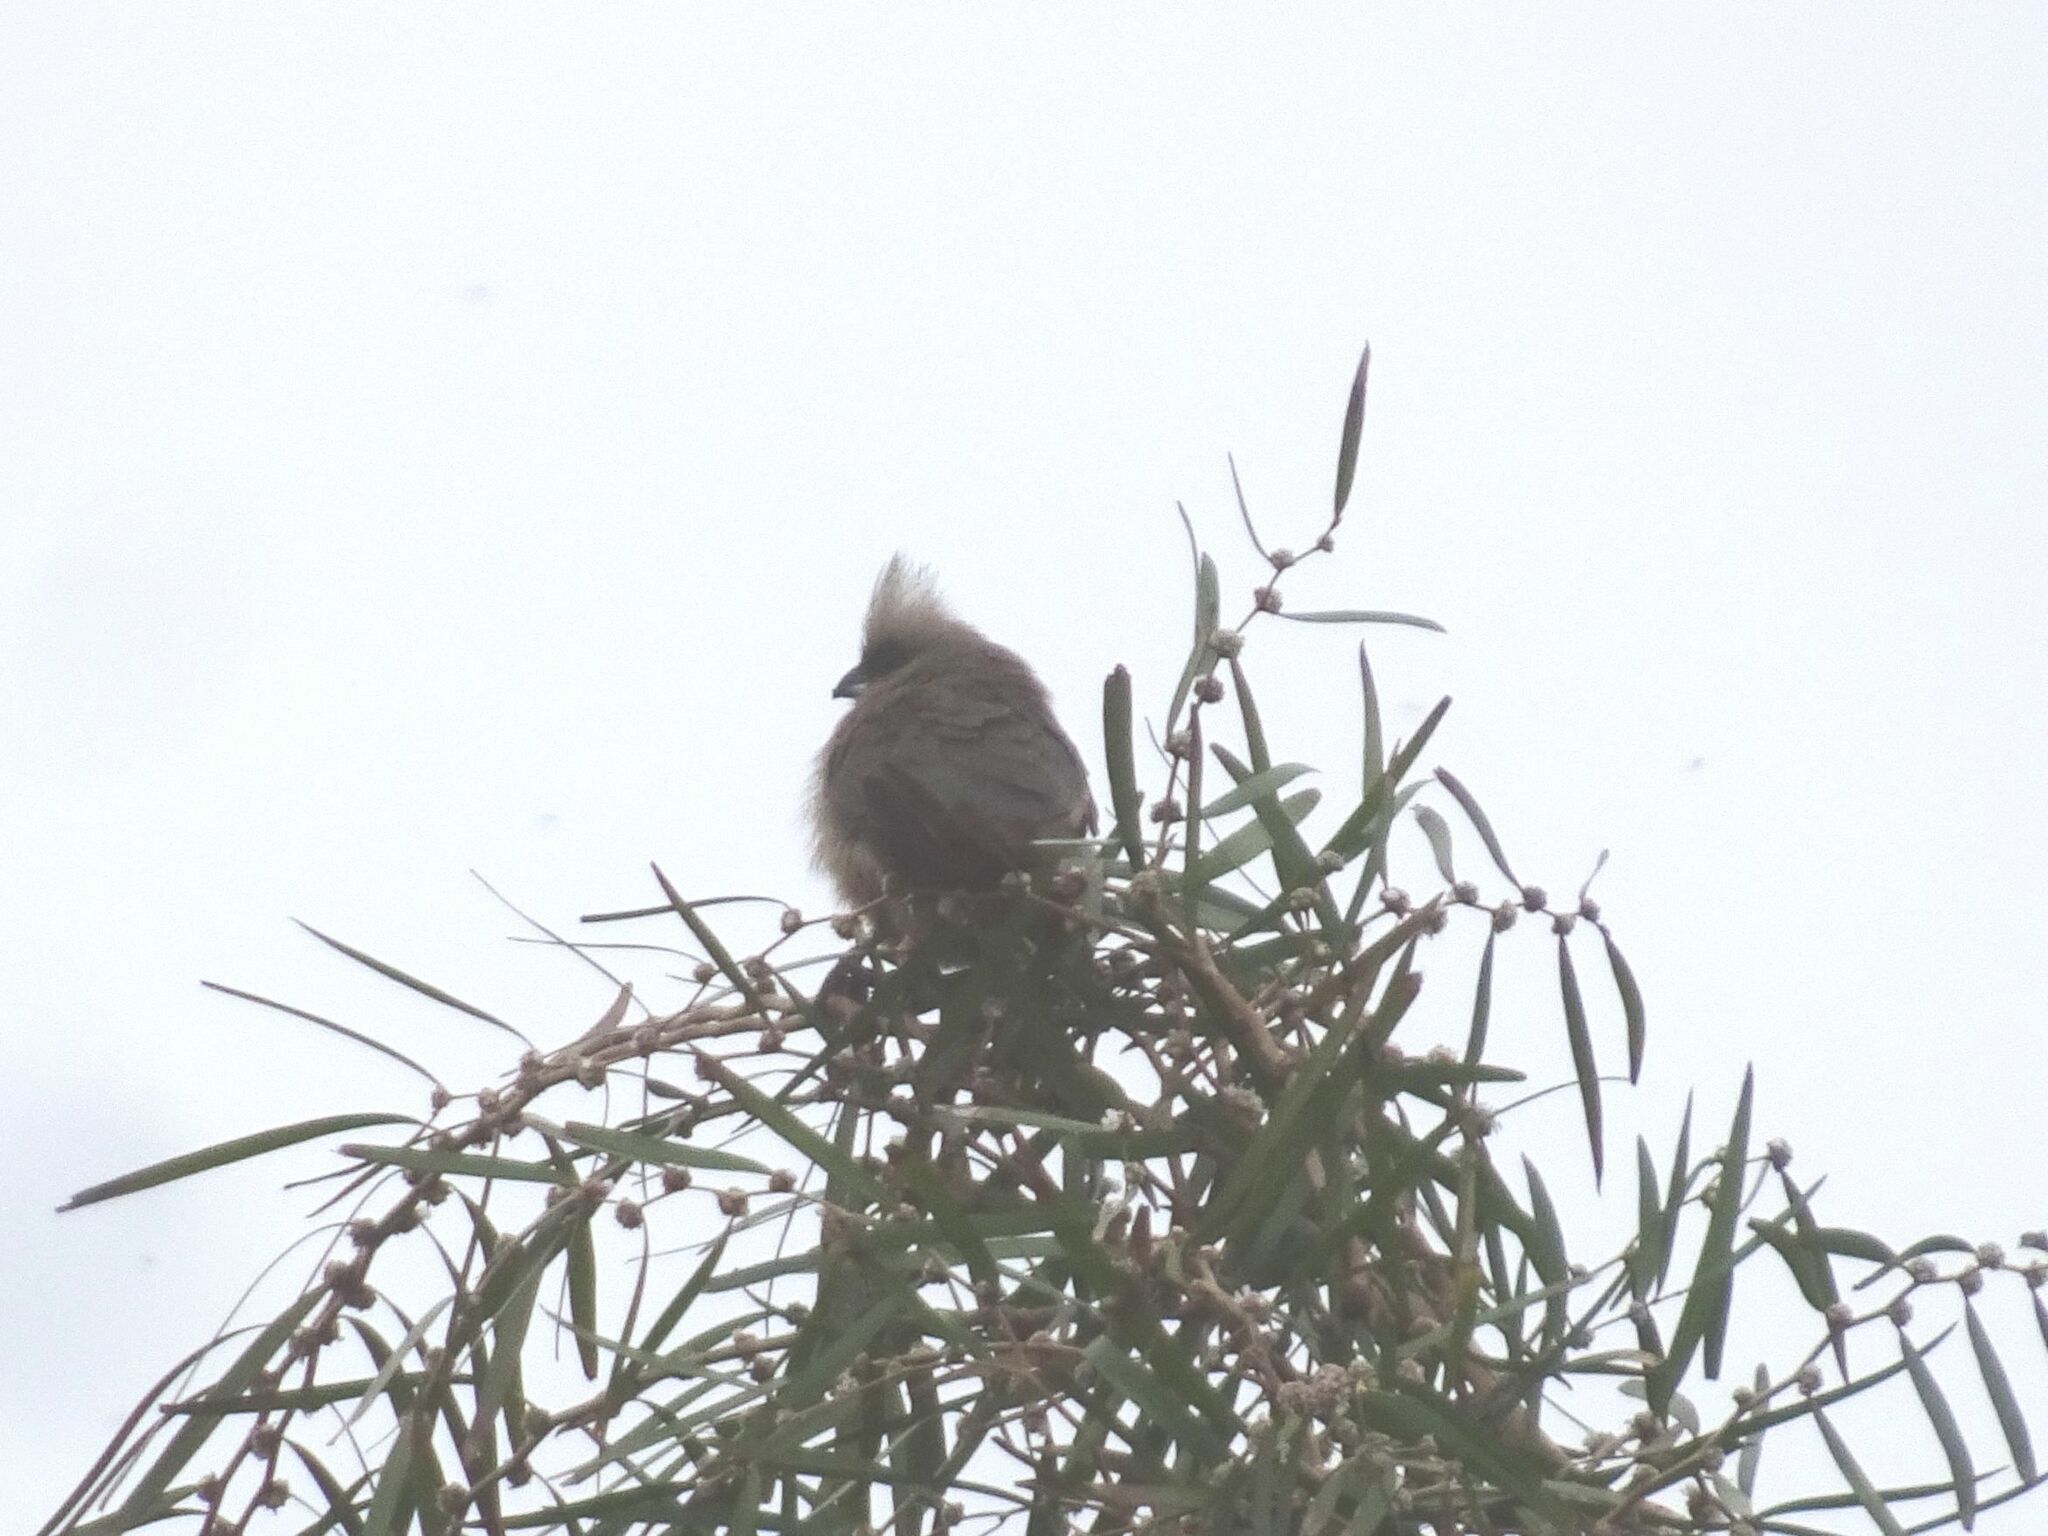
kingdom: Animalia
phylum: Chordata
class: Aves
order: Coliiformes
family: Coliidae
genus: Colius
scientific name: Colius striatus
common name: Speckled mousebird
